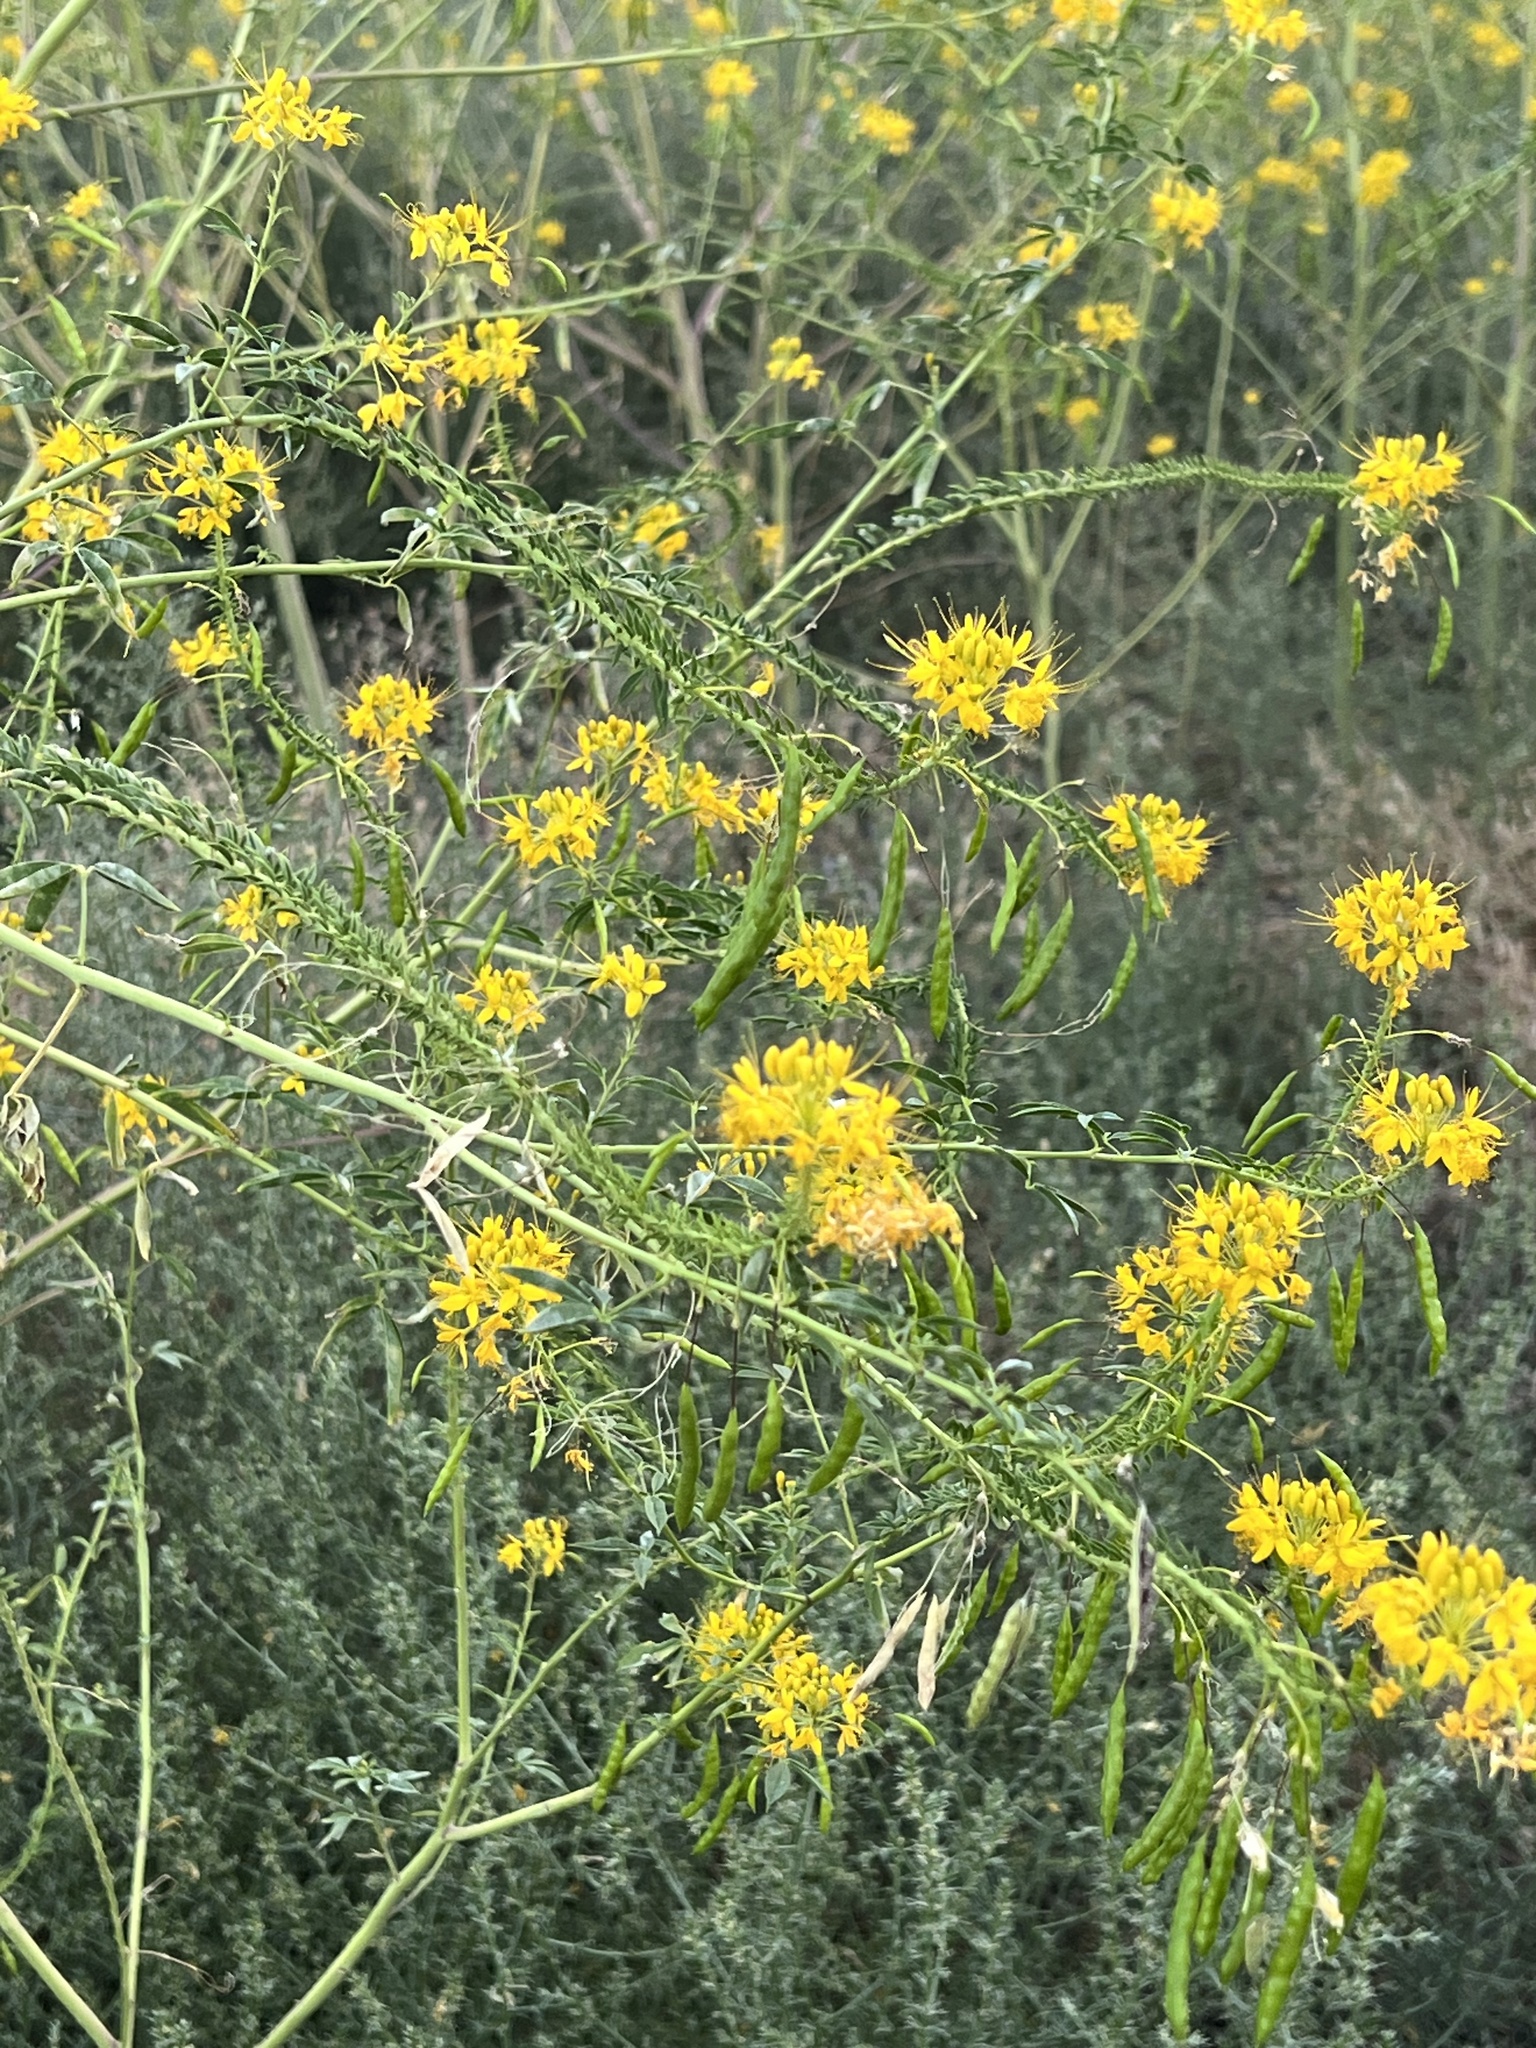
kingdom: Plantae
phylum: Tracheophyta
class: Magnoliopsida
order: Brassicales
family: Cleomaceae
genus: Cleomella
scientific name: Cleomella lutea
